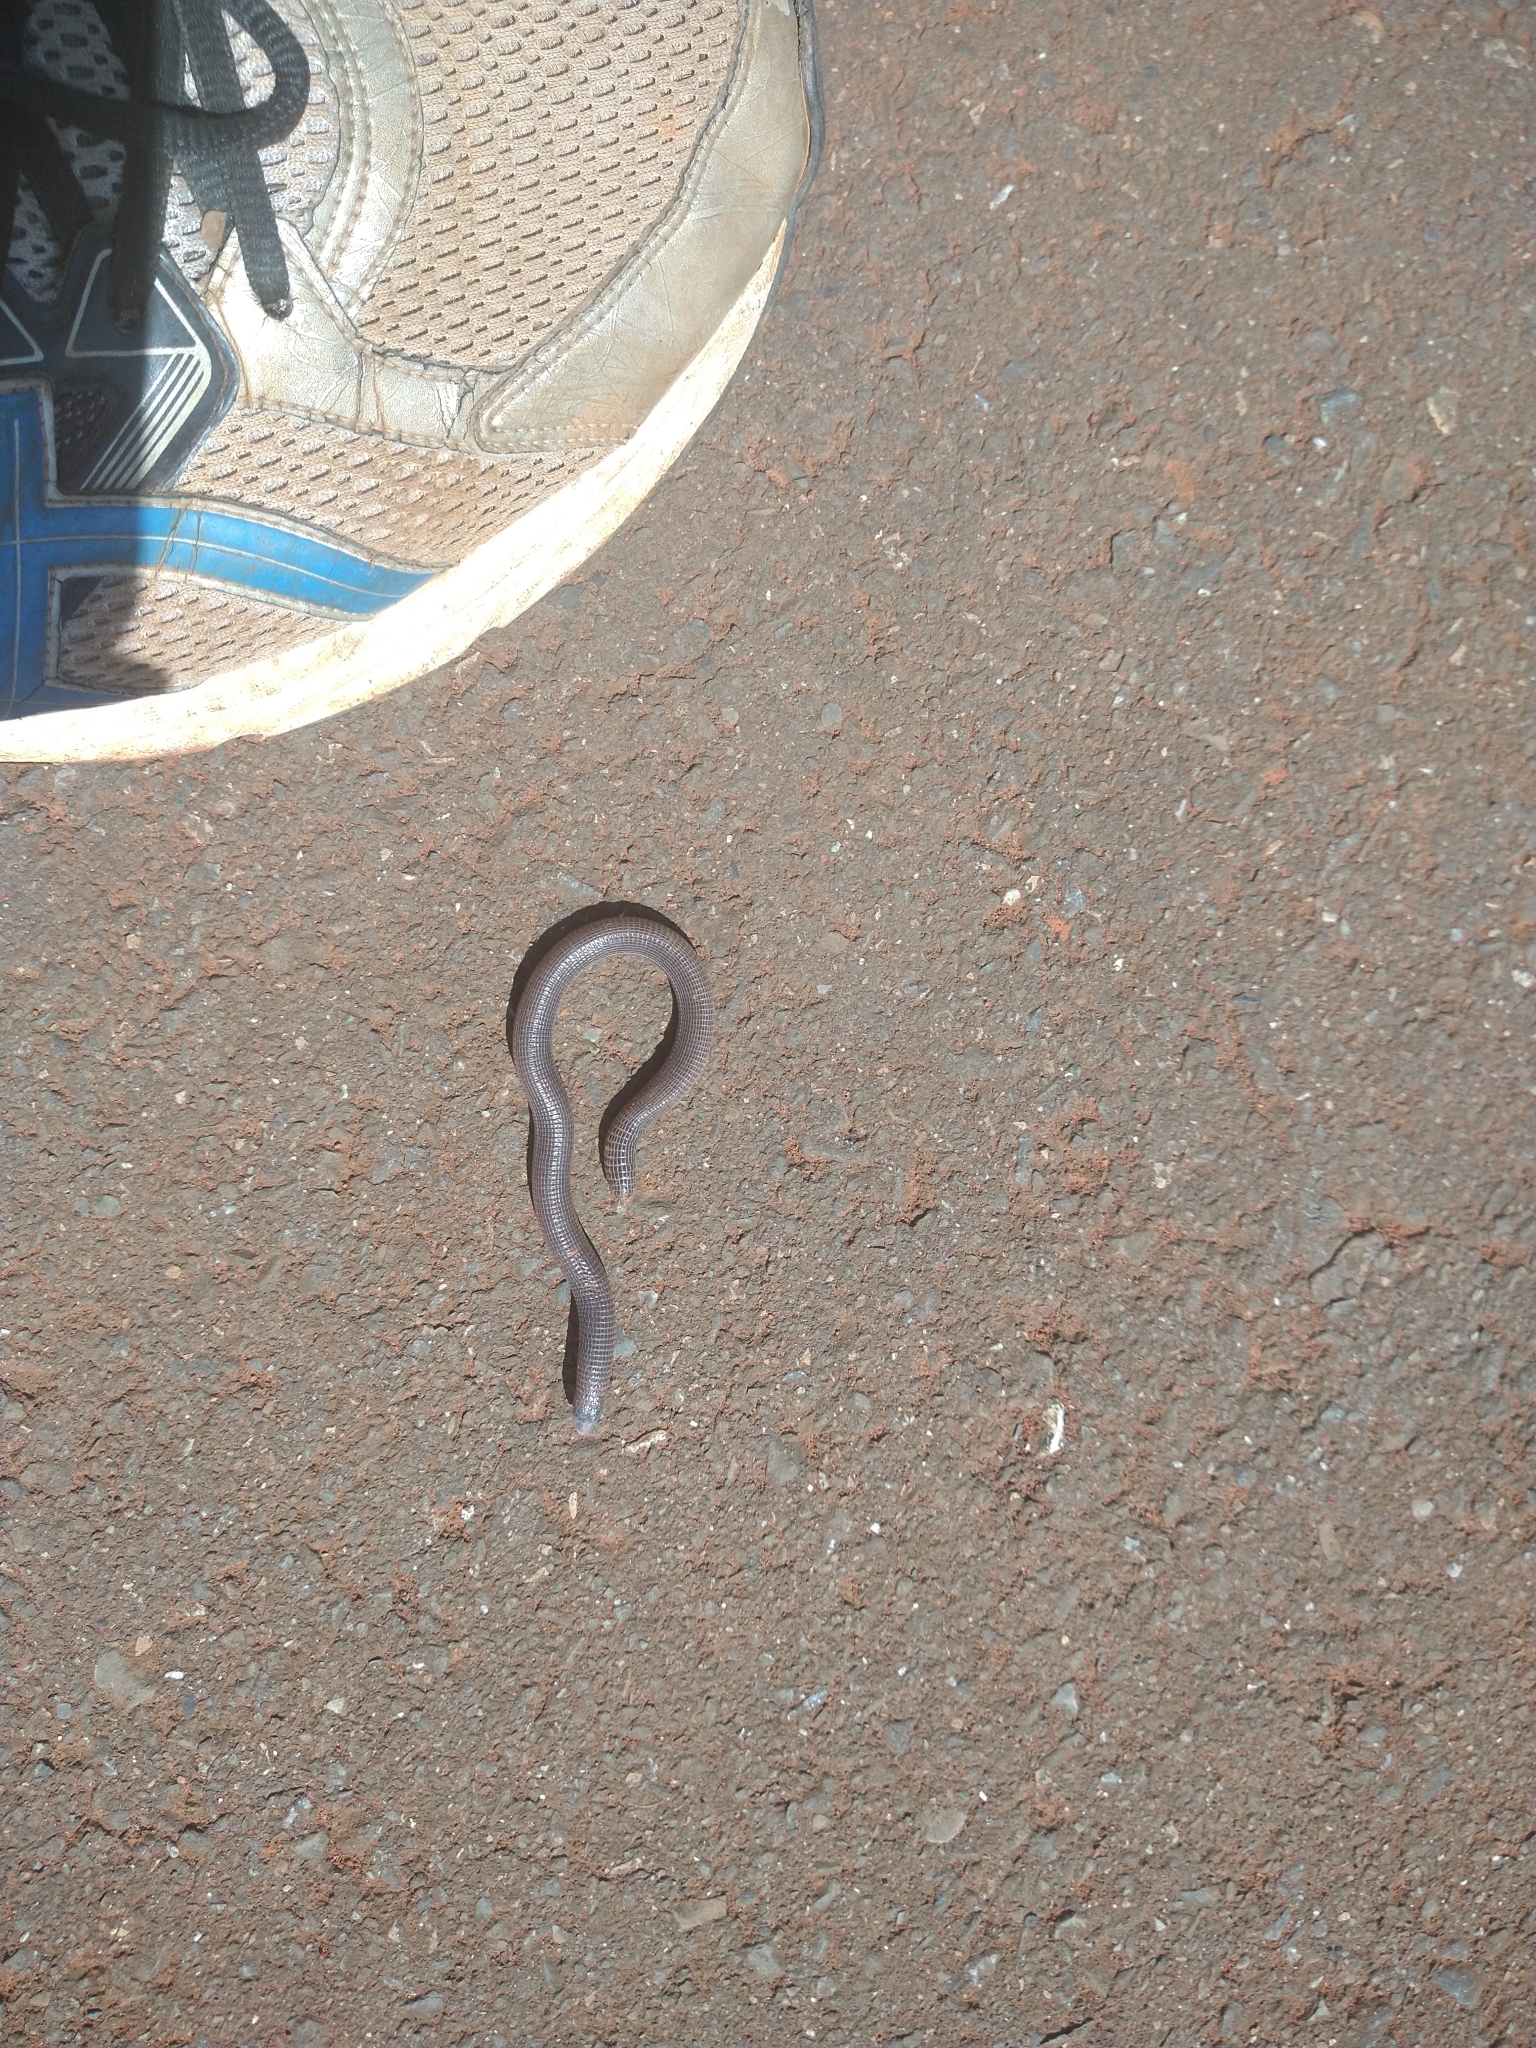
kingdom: Animalia
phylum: Chordata
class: Squamata
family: Amphisbaenidae
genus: Amphisbaena
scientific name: Amphisbaena vermicularis
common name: Wagler's worm lizard
